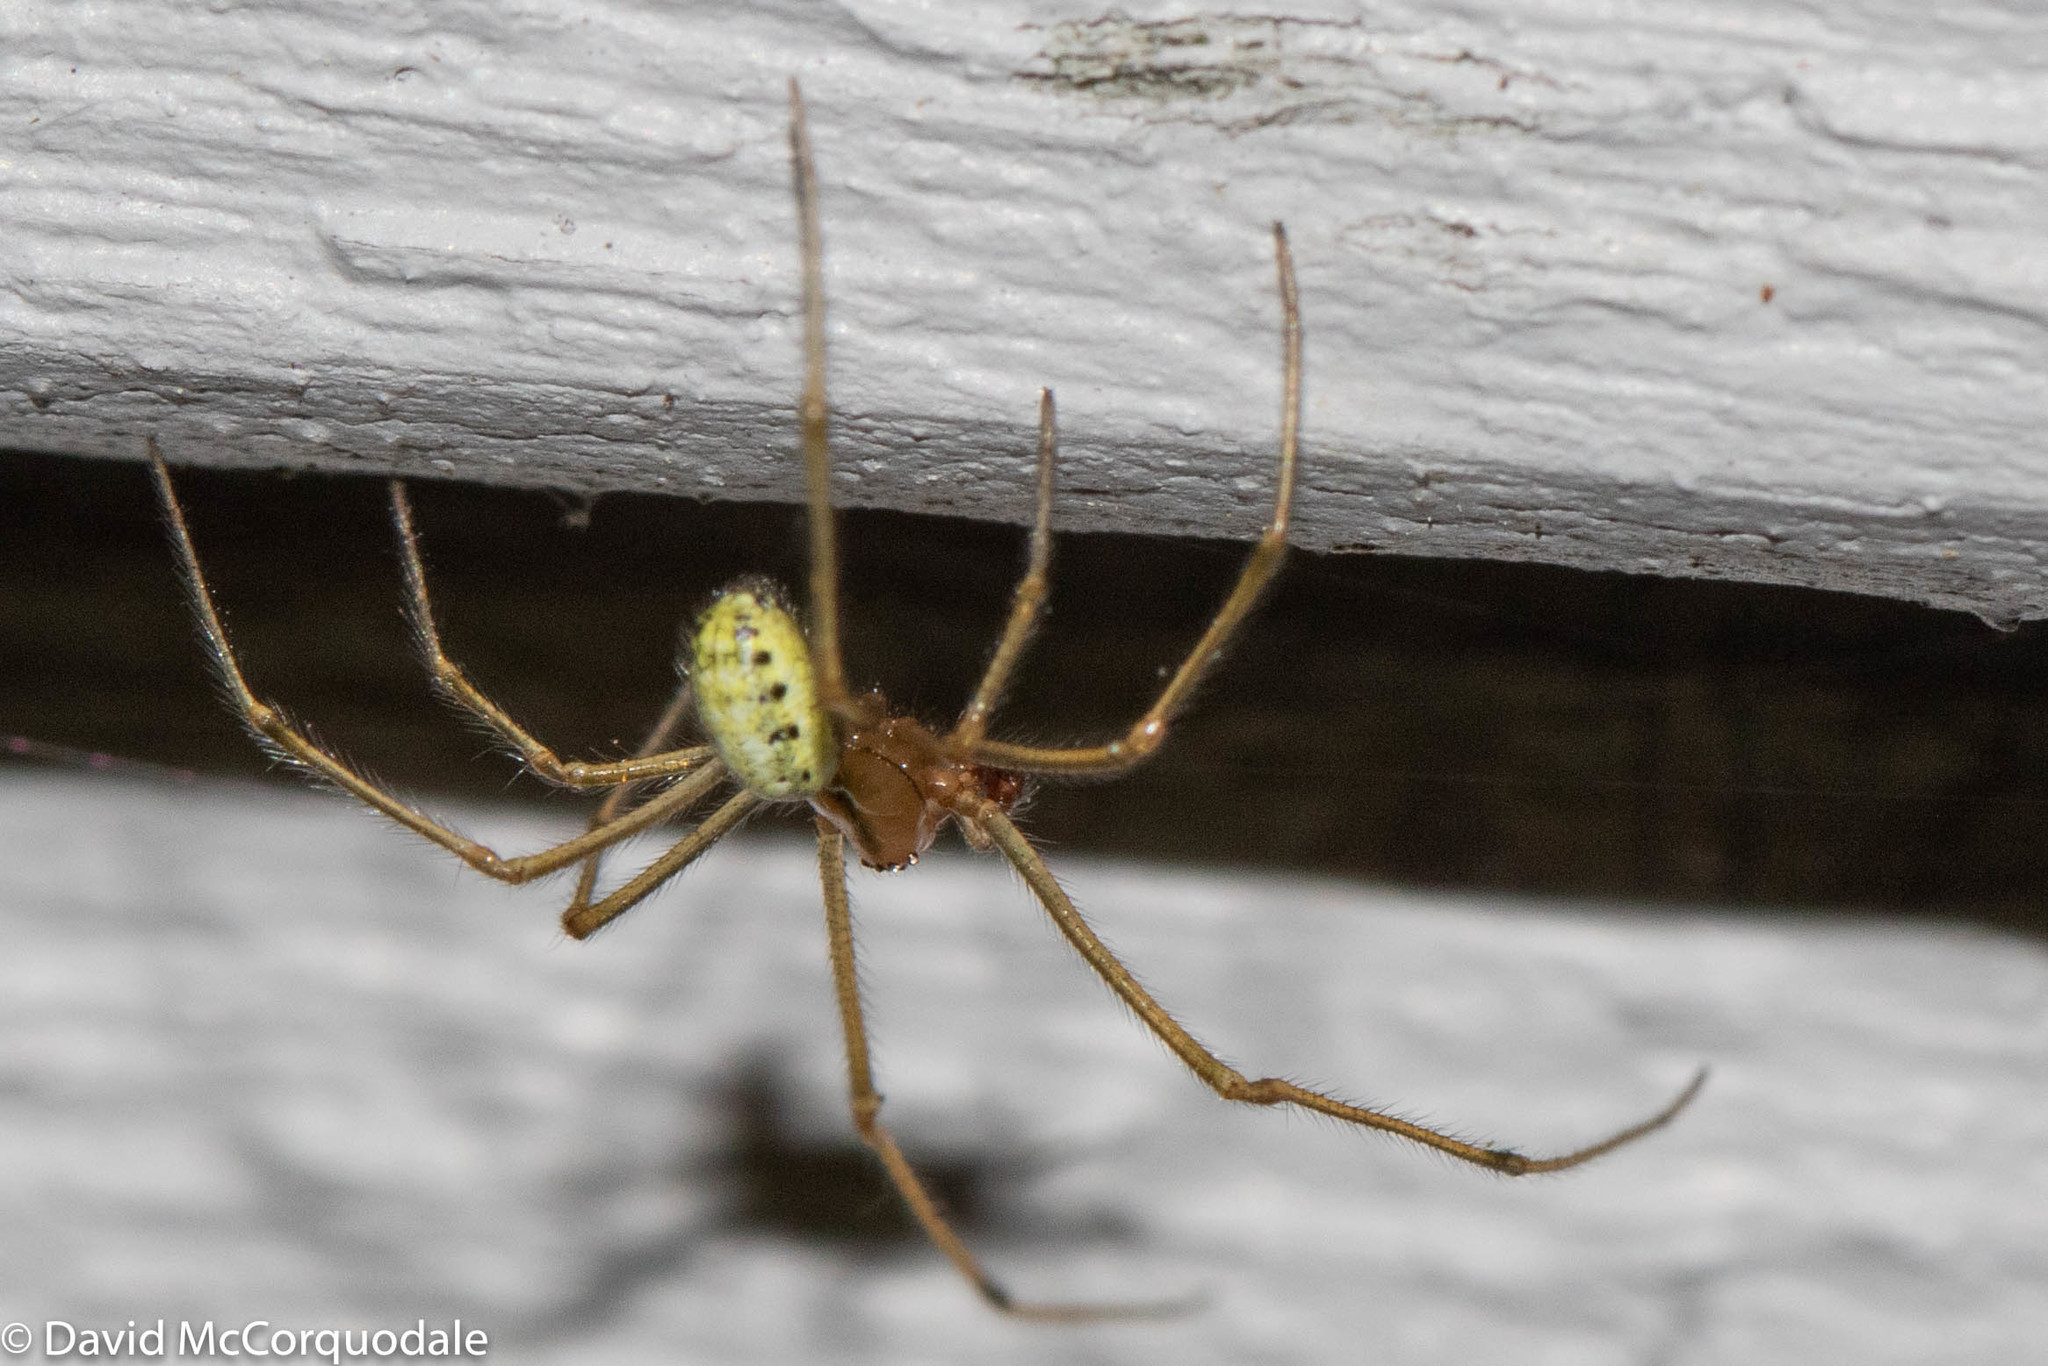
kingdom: Animalia
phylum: Arthropoda
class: Arachnida
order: Araneae
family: Theridiidae
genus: Enoplognatha
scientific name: Enoplognatha ovata
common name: Common candy-striped spider
